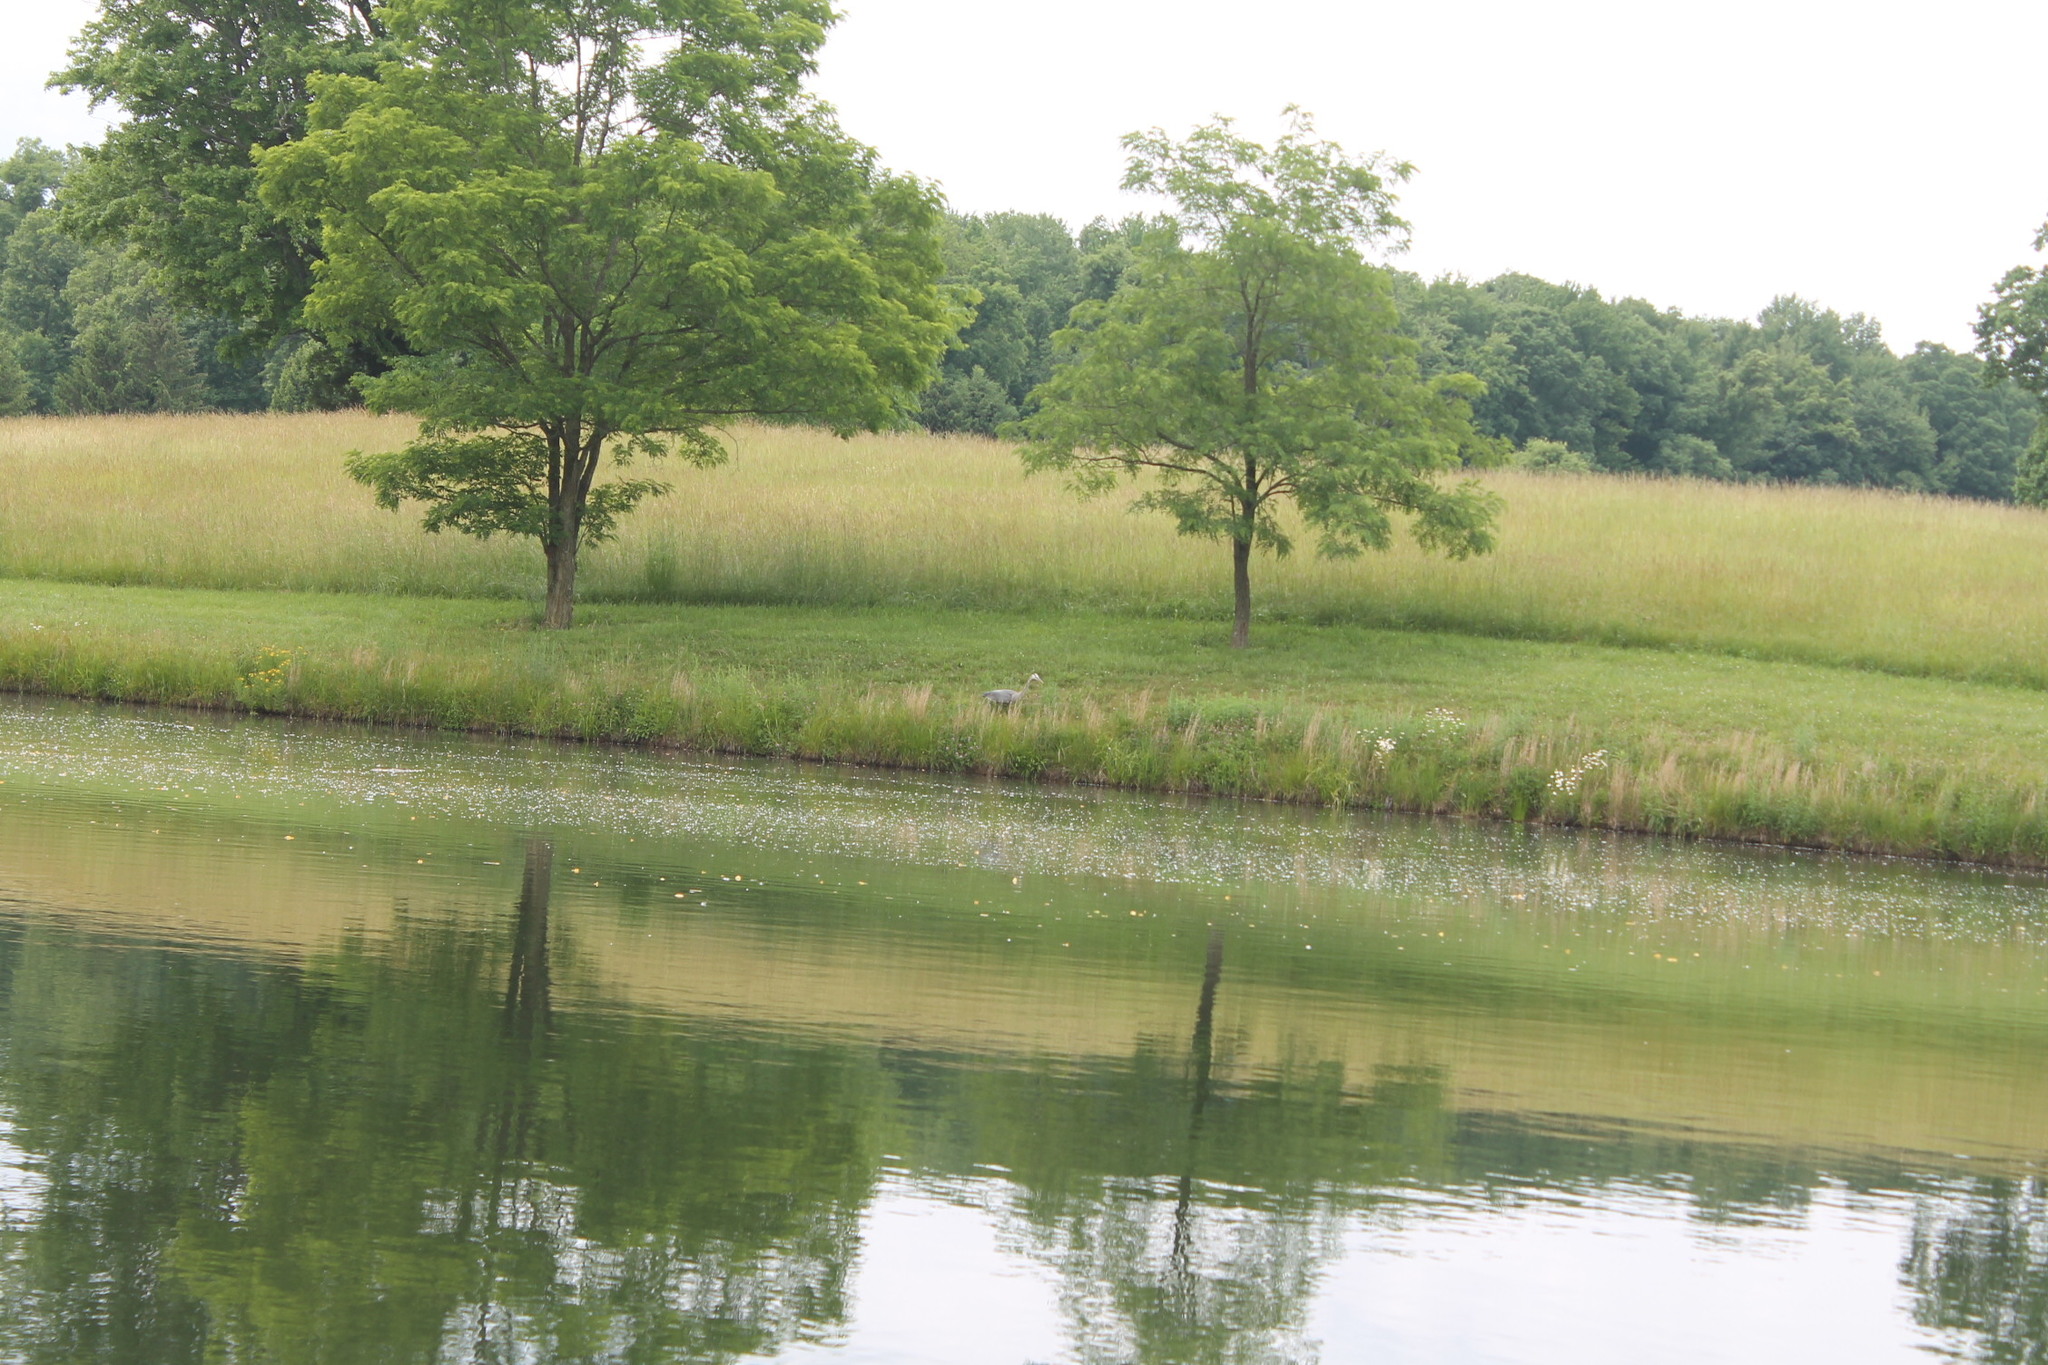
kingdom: Animalia
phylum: Chordata
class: Aves
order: Pelecaniformes
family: Ardeidae
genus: Ardea
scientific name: Ardea herodias
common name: Great blue heron
